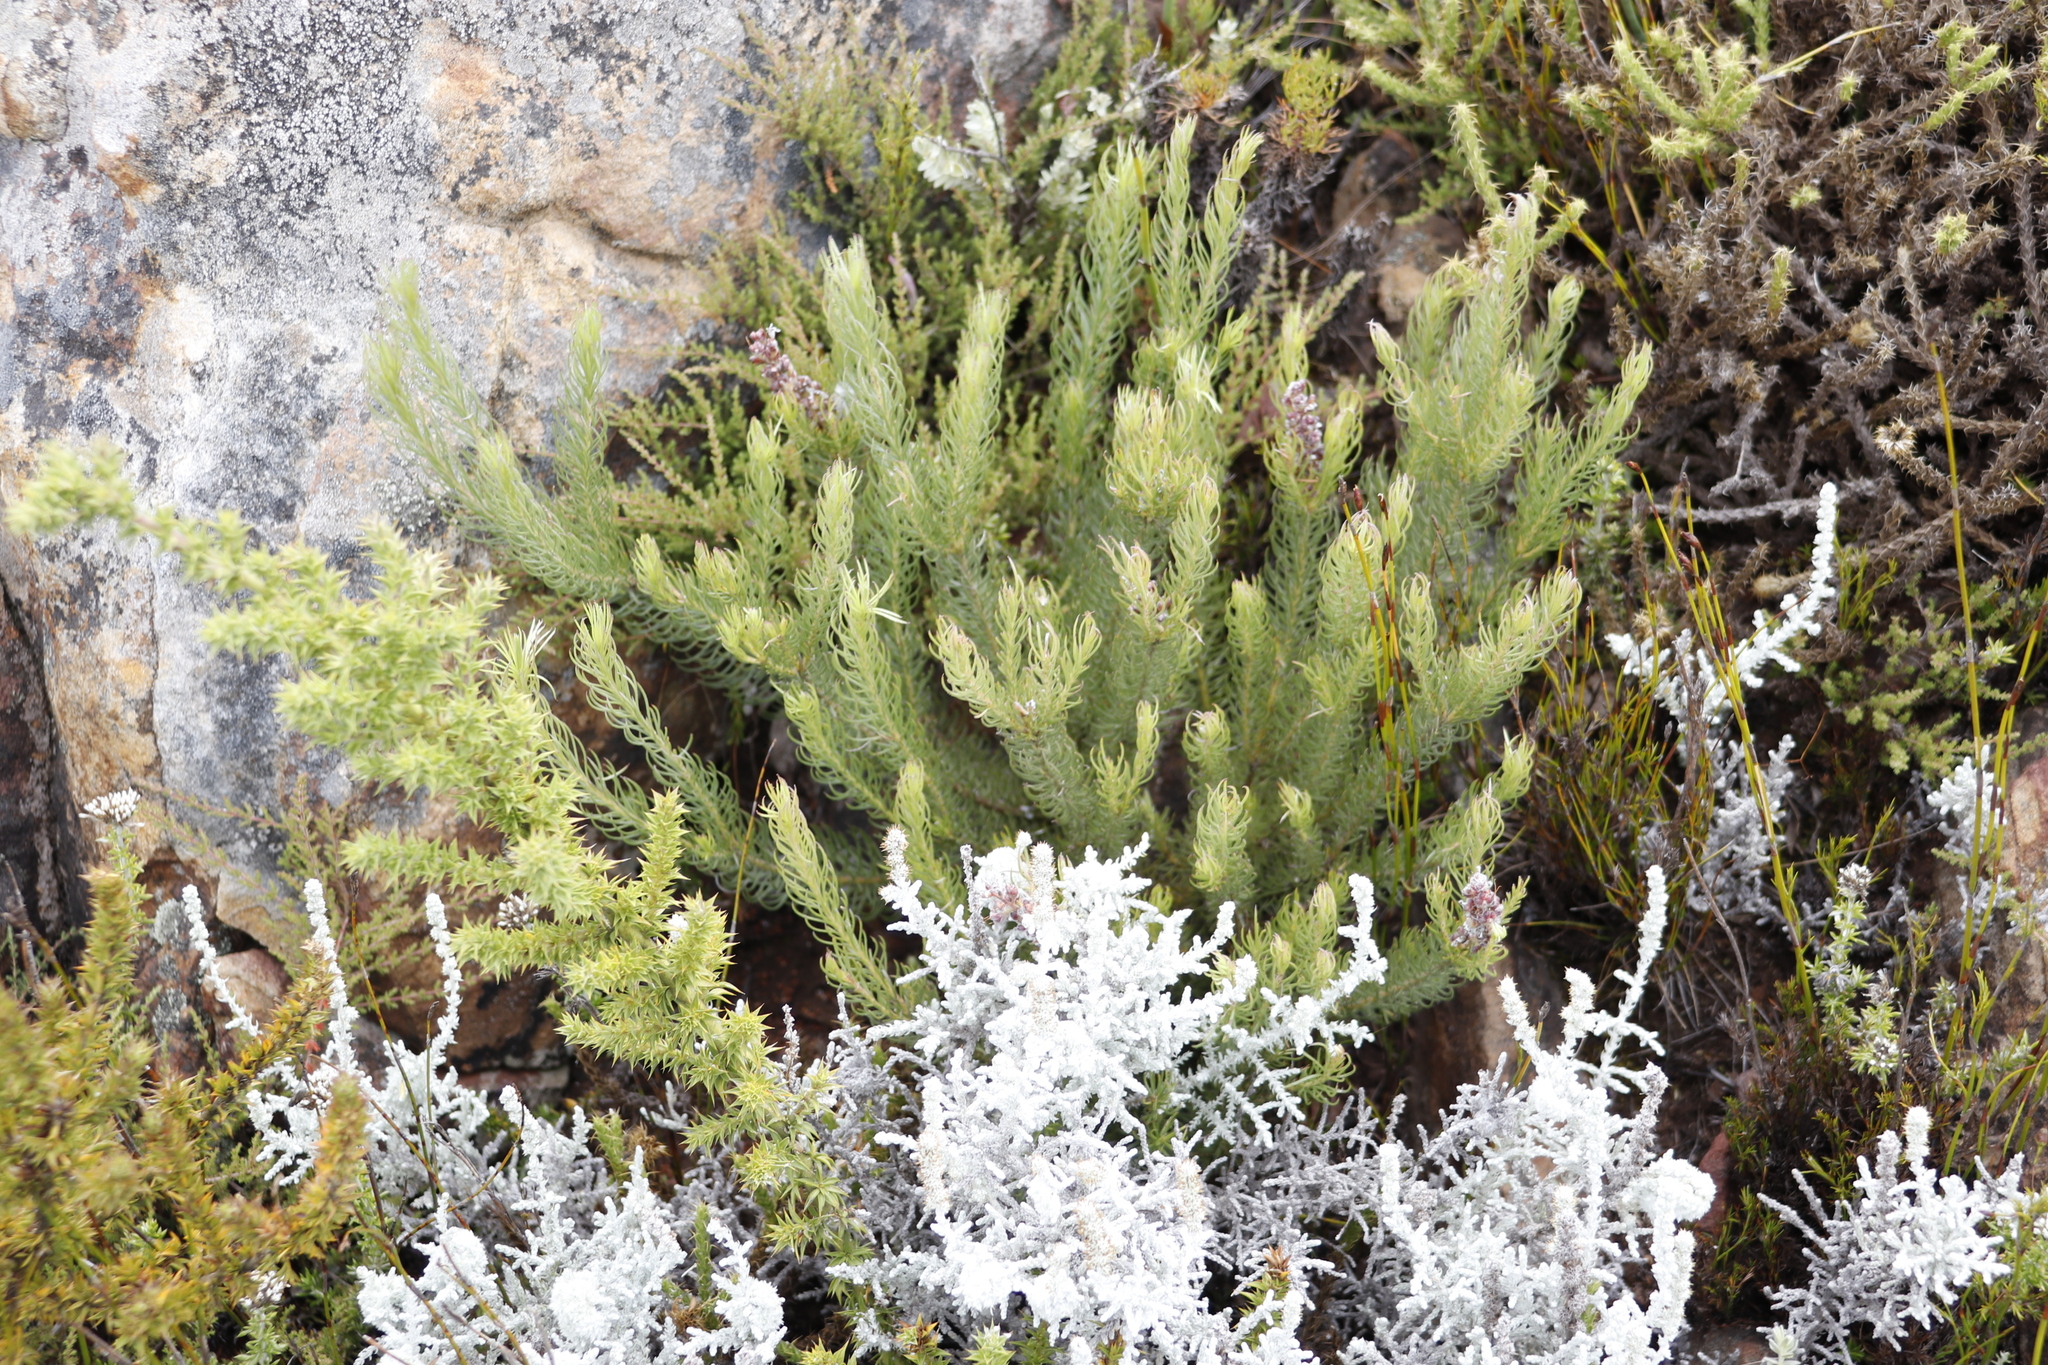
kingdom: Plantae
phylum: Tracheophyta
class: Magnoliopsida
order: Proteales
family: Proteaceae
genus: Spatalla
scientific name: Spatalla confusa
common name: Long-tube spoon
